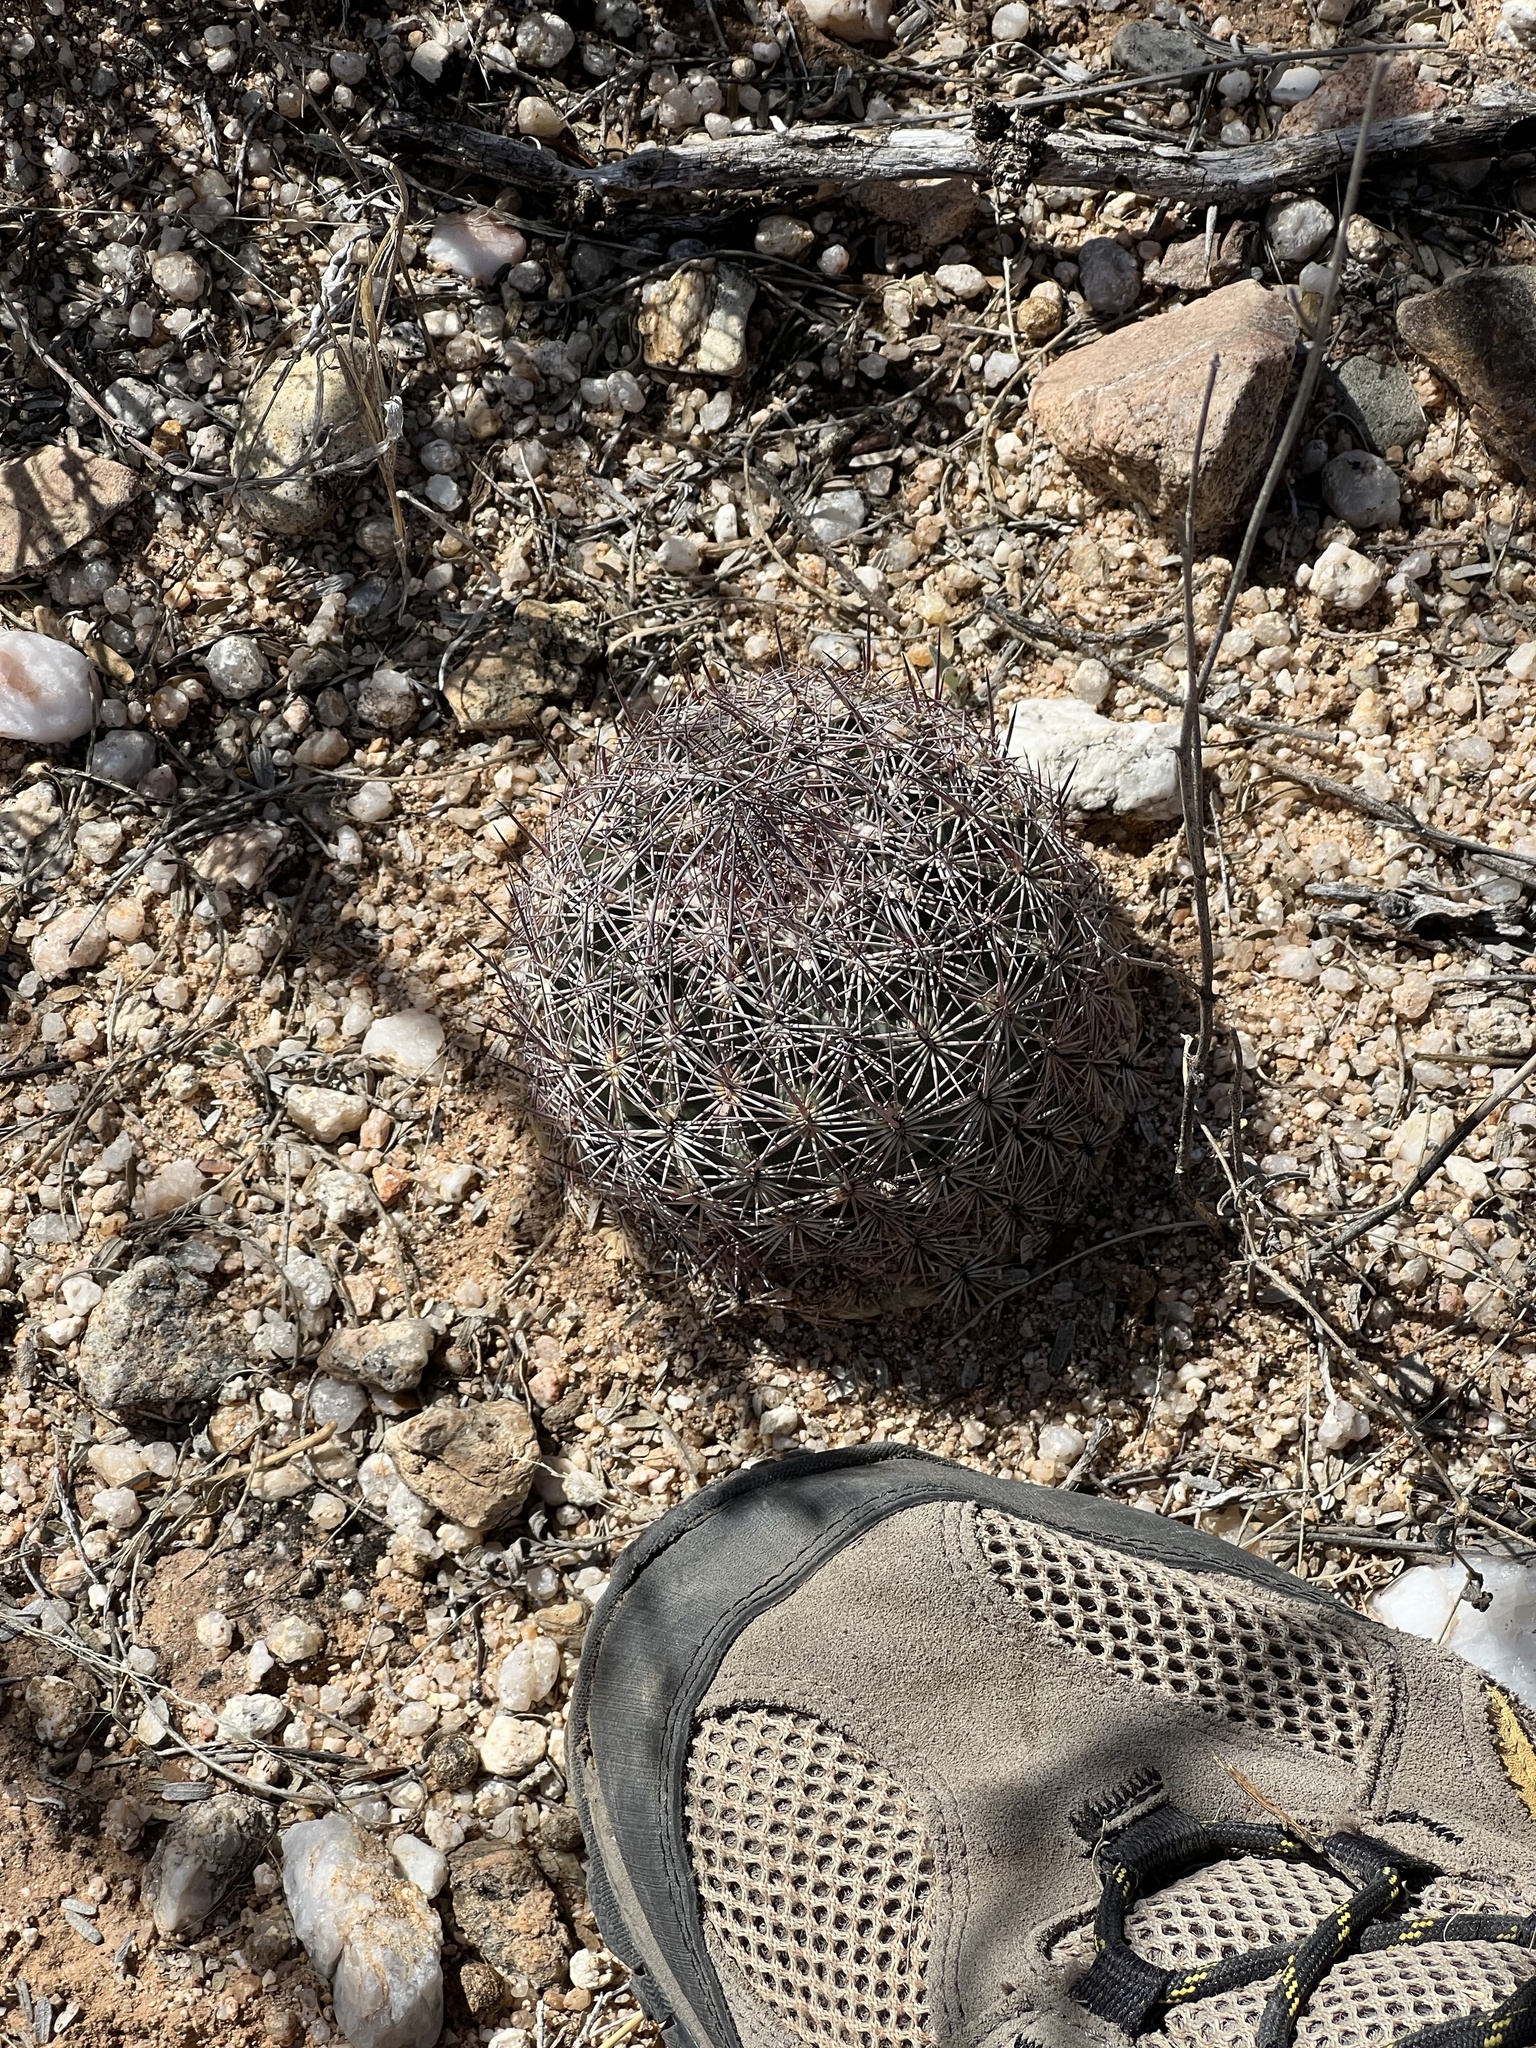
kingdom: Plantae
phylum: Tracheophyta
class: Magnoliopsida
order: Caryophyllales
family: Cactaceae
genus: Sclerocactus
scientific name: Sclerocactus johnsonii
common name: Eight-spine fishhook cactus
